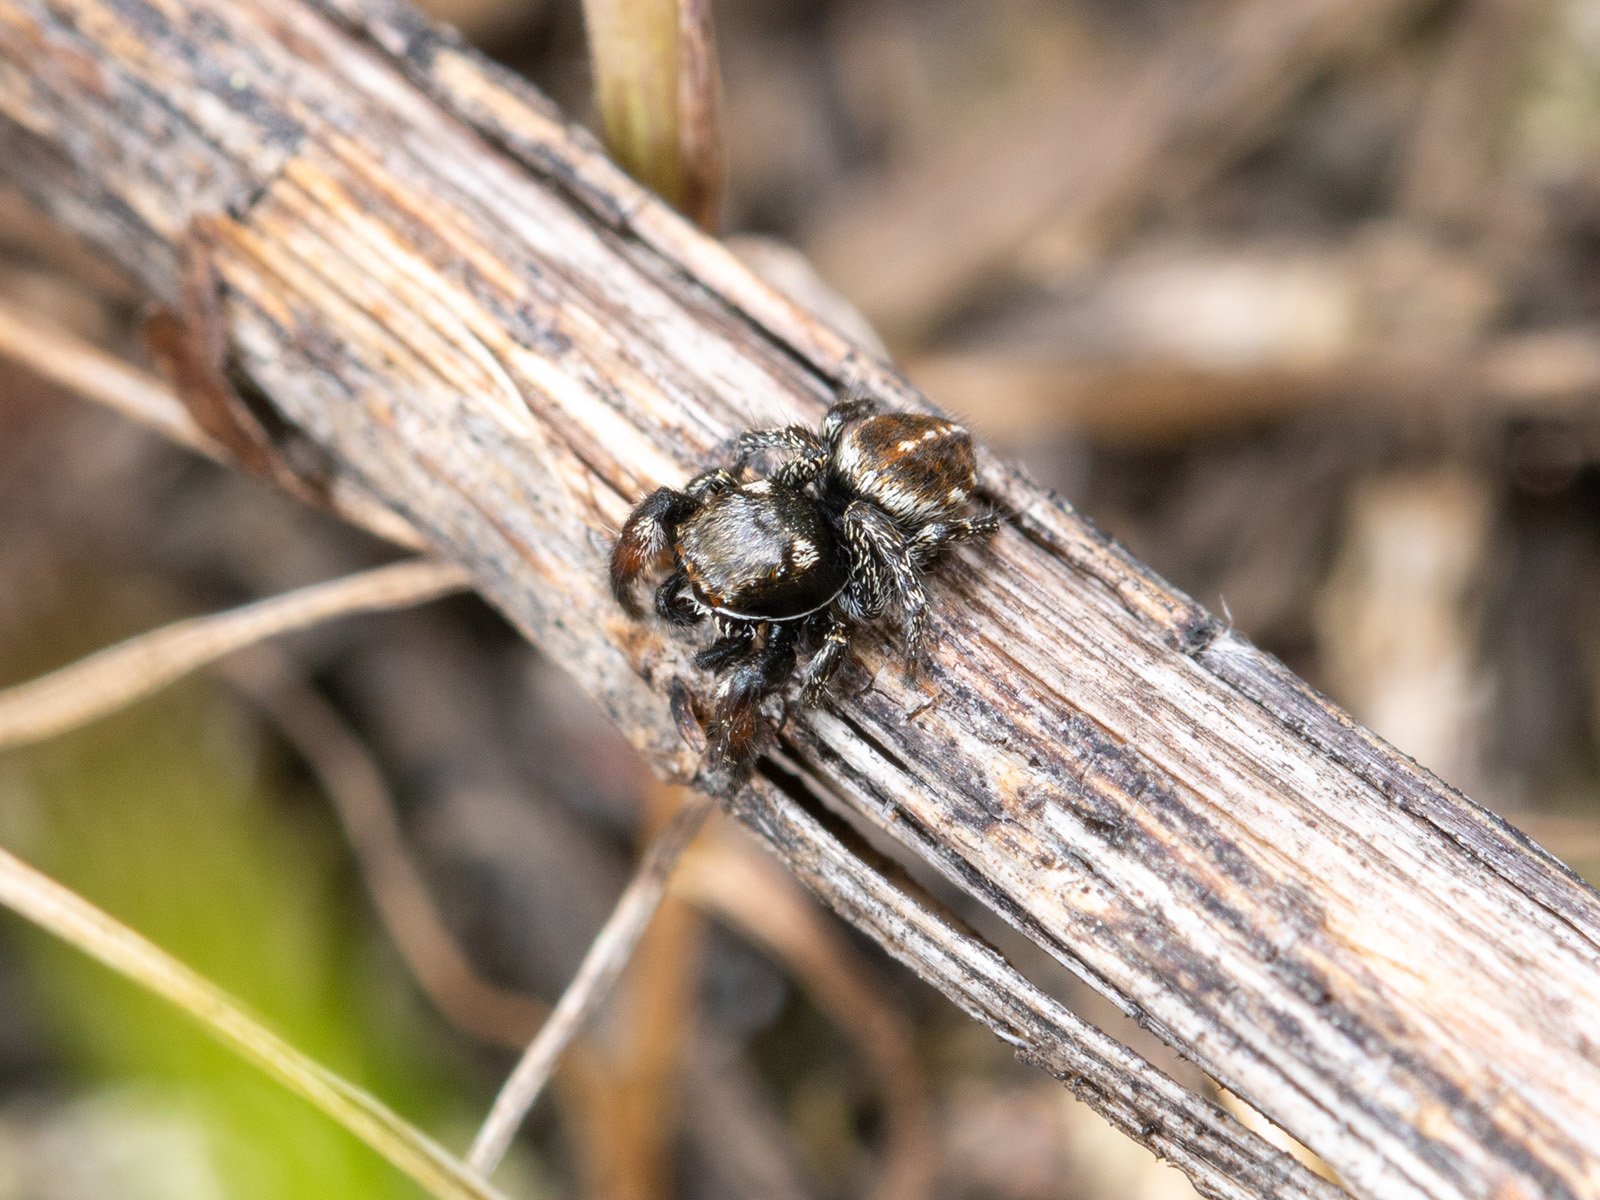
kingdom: Animalia
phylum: Arthropoda
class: Arachnida
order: Araneae
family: Salticidae
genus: Pellenes
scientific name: Pellenes allegrii
